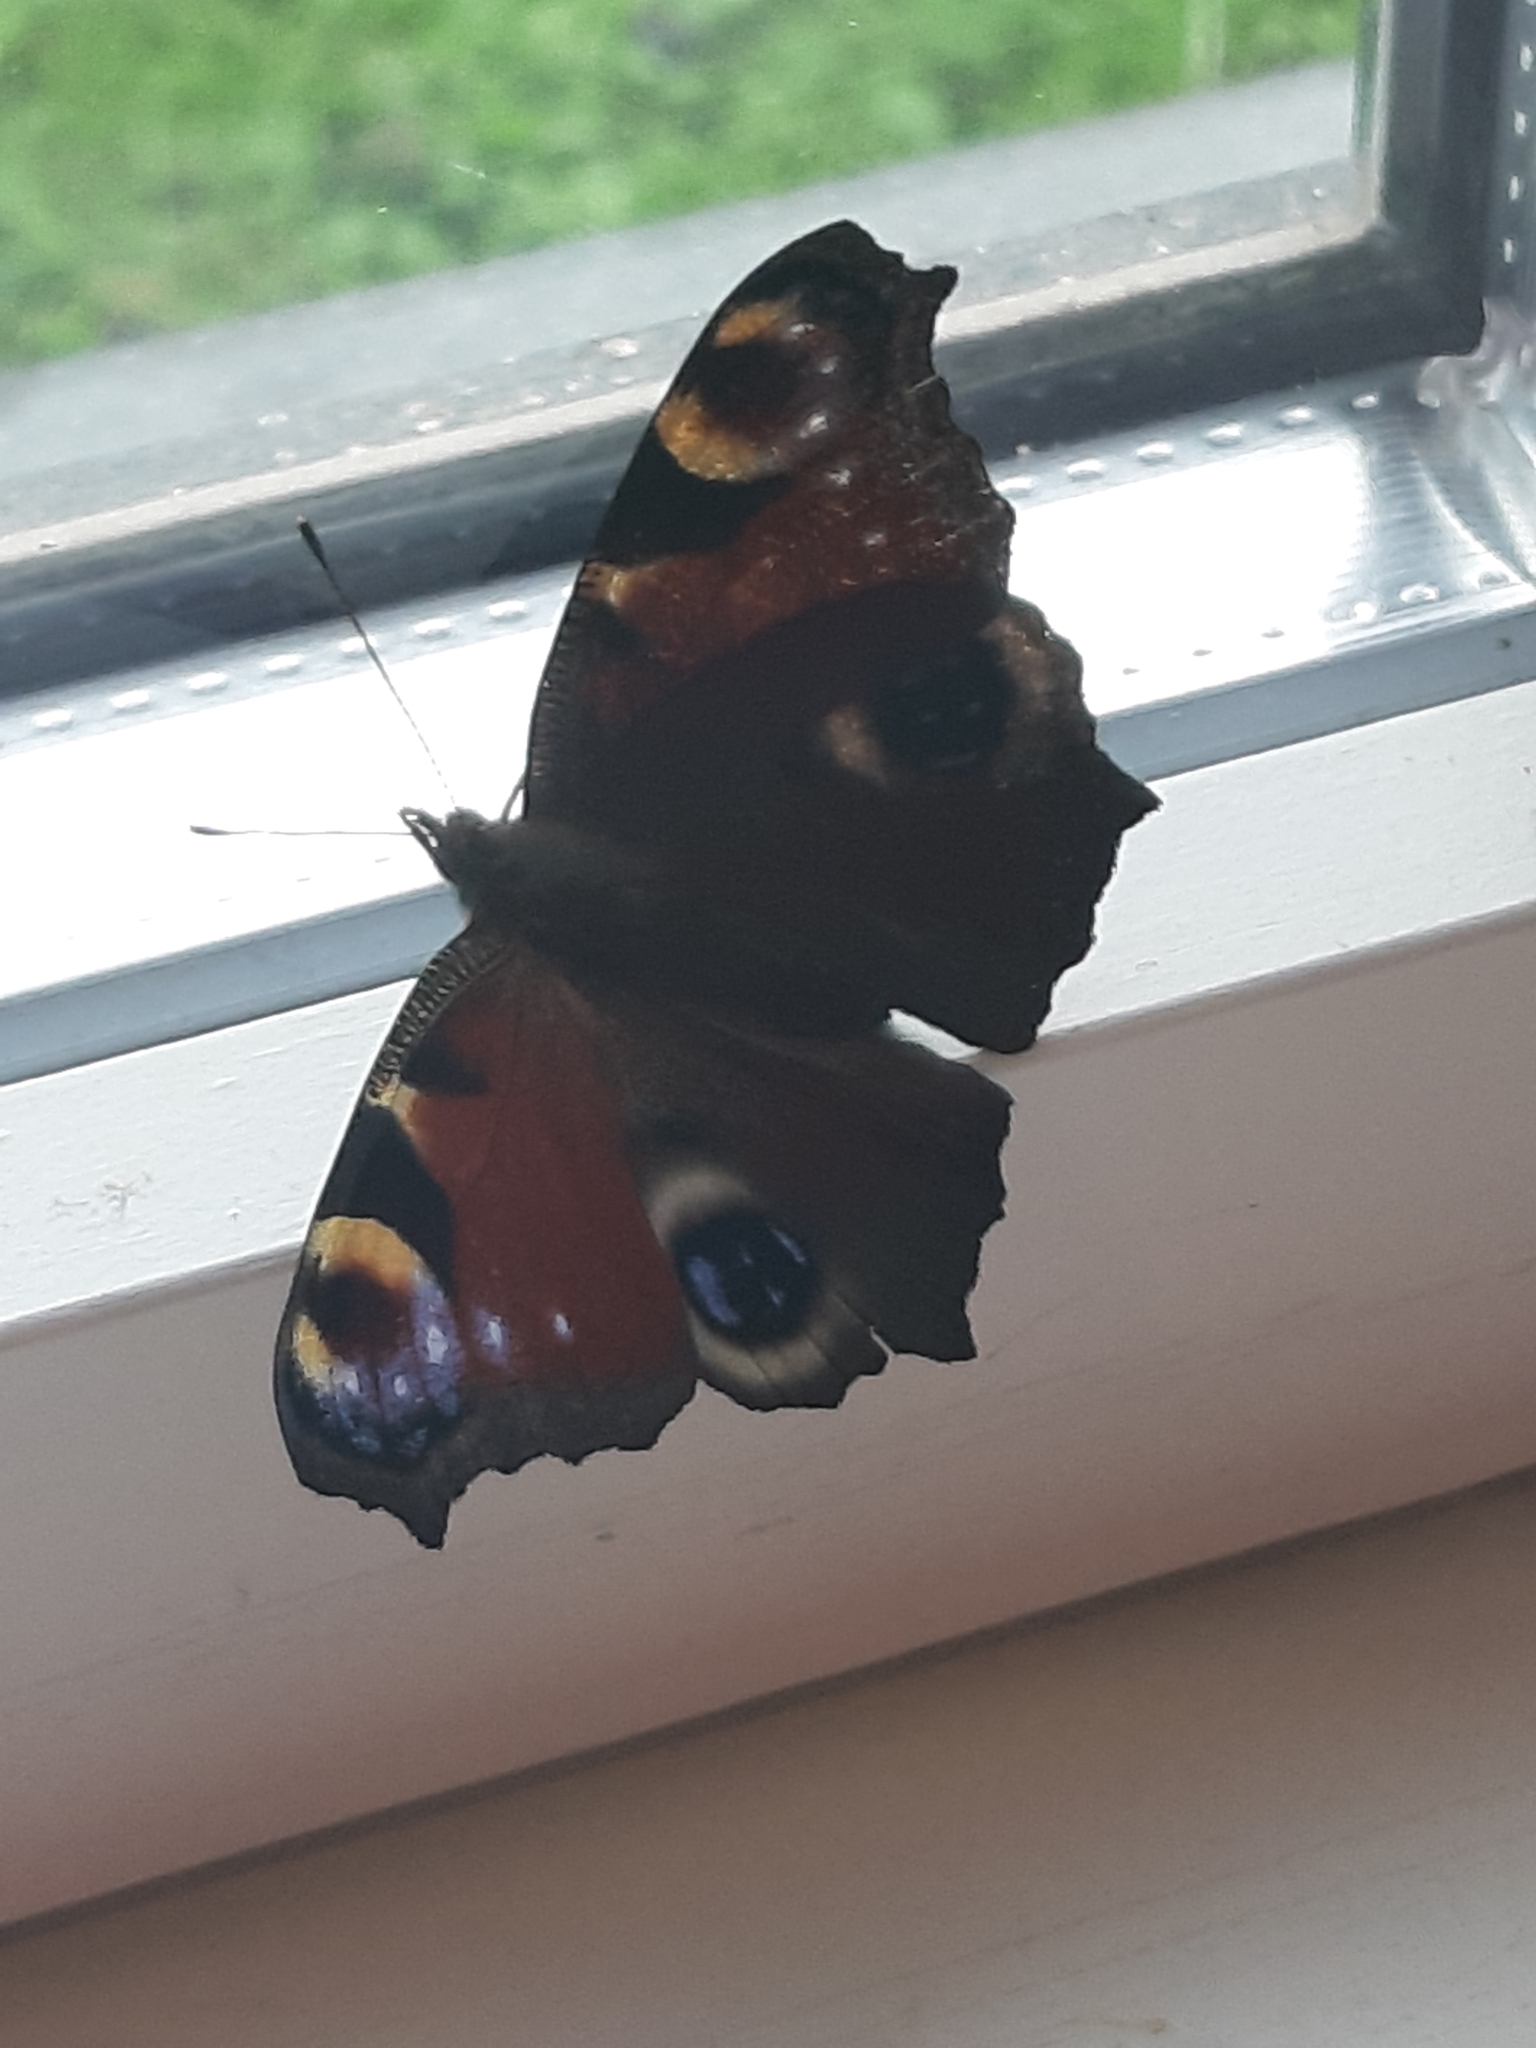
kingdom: Animalia
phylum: Arthropoda
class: Insecta
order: Lepidoptera
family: Nymphalidae
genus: Aglais
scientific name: Aglais io
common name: Peacock
